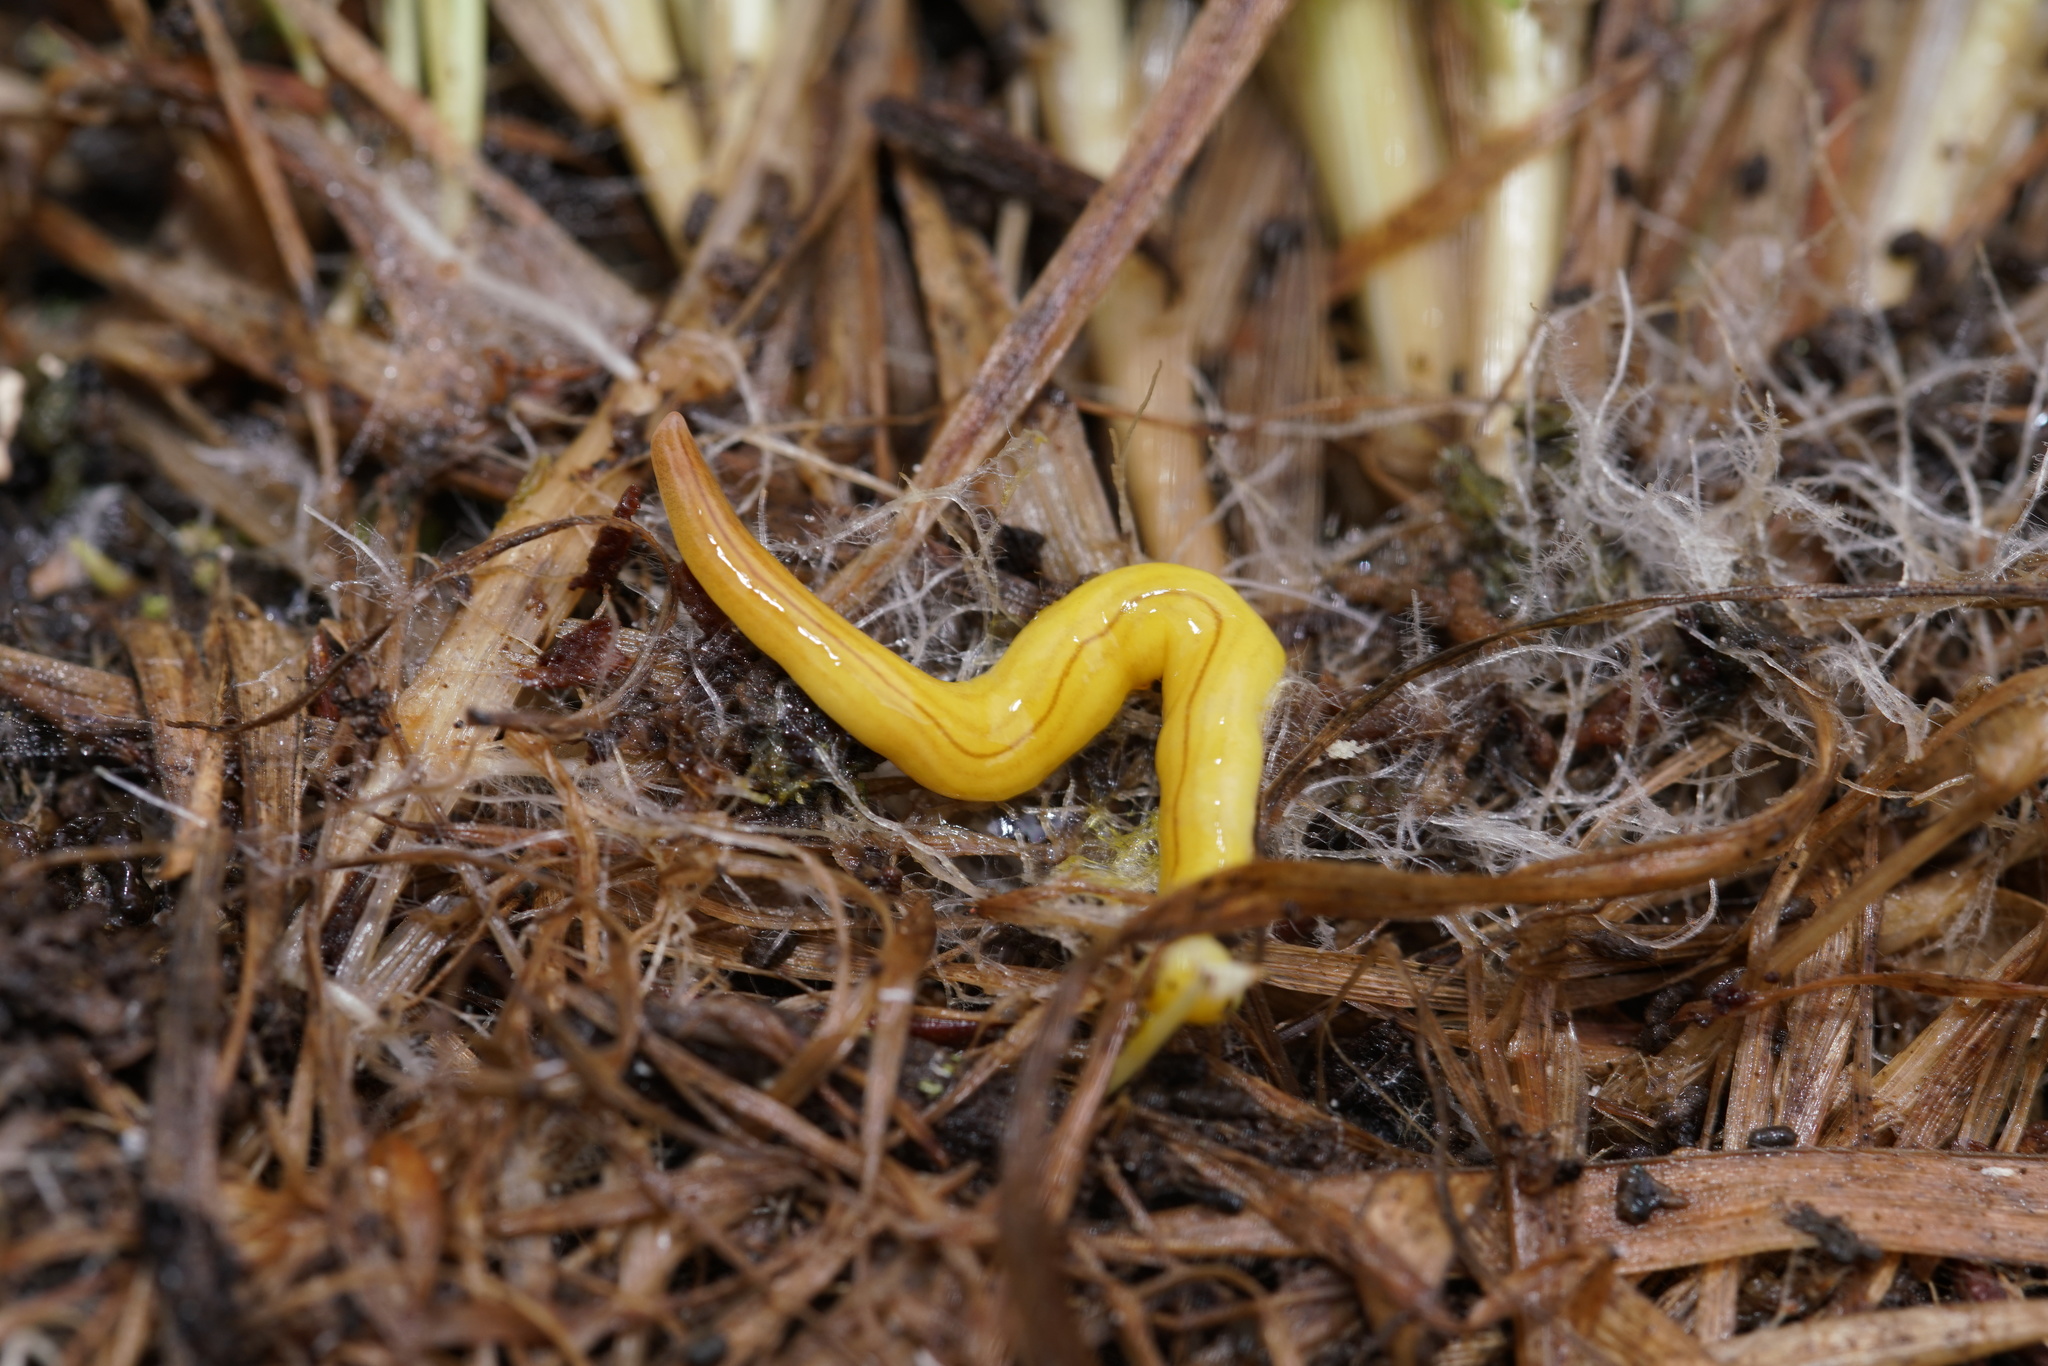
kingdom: Animalia
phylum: Platyhelminthes
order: Tricladida
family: Geoplanidae
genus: Fletchamia
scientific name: Fletchamia quinquelineata
